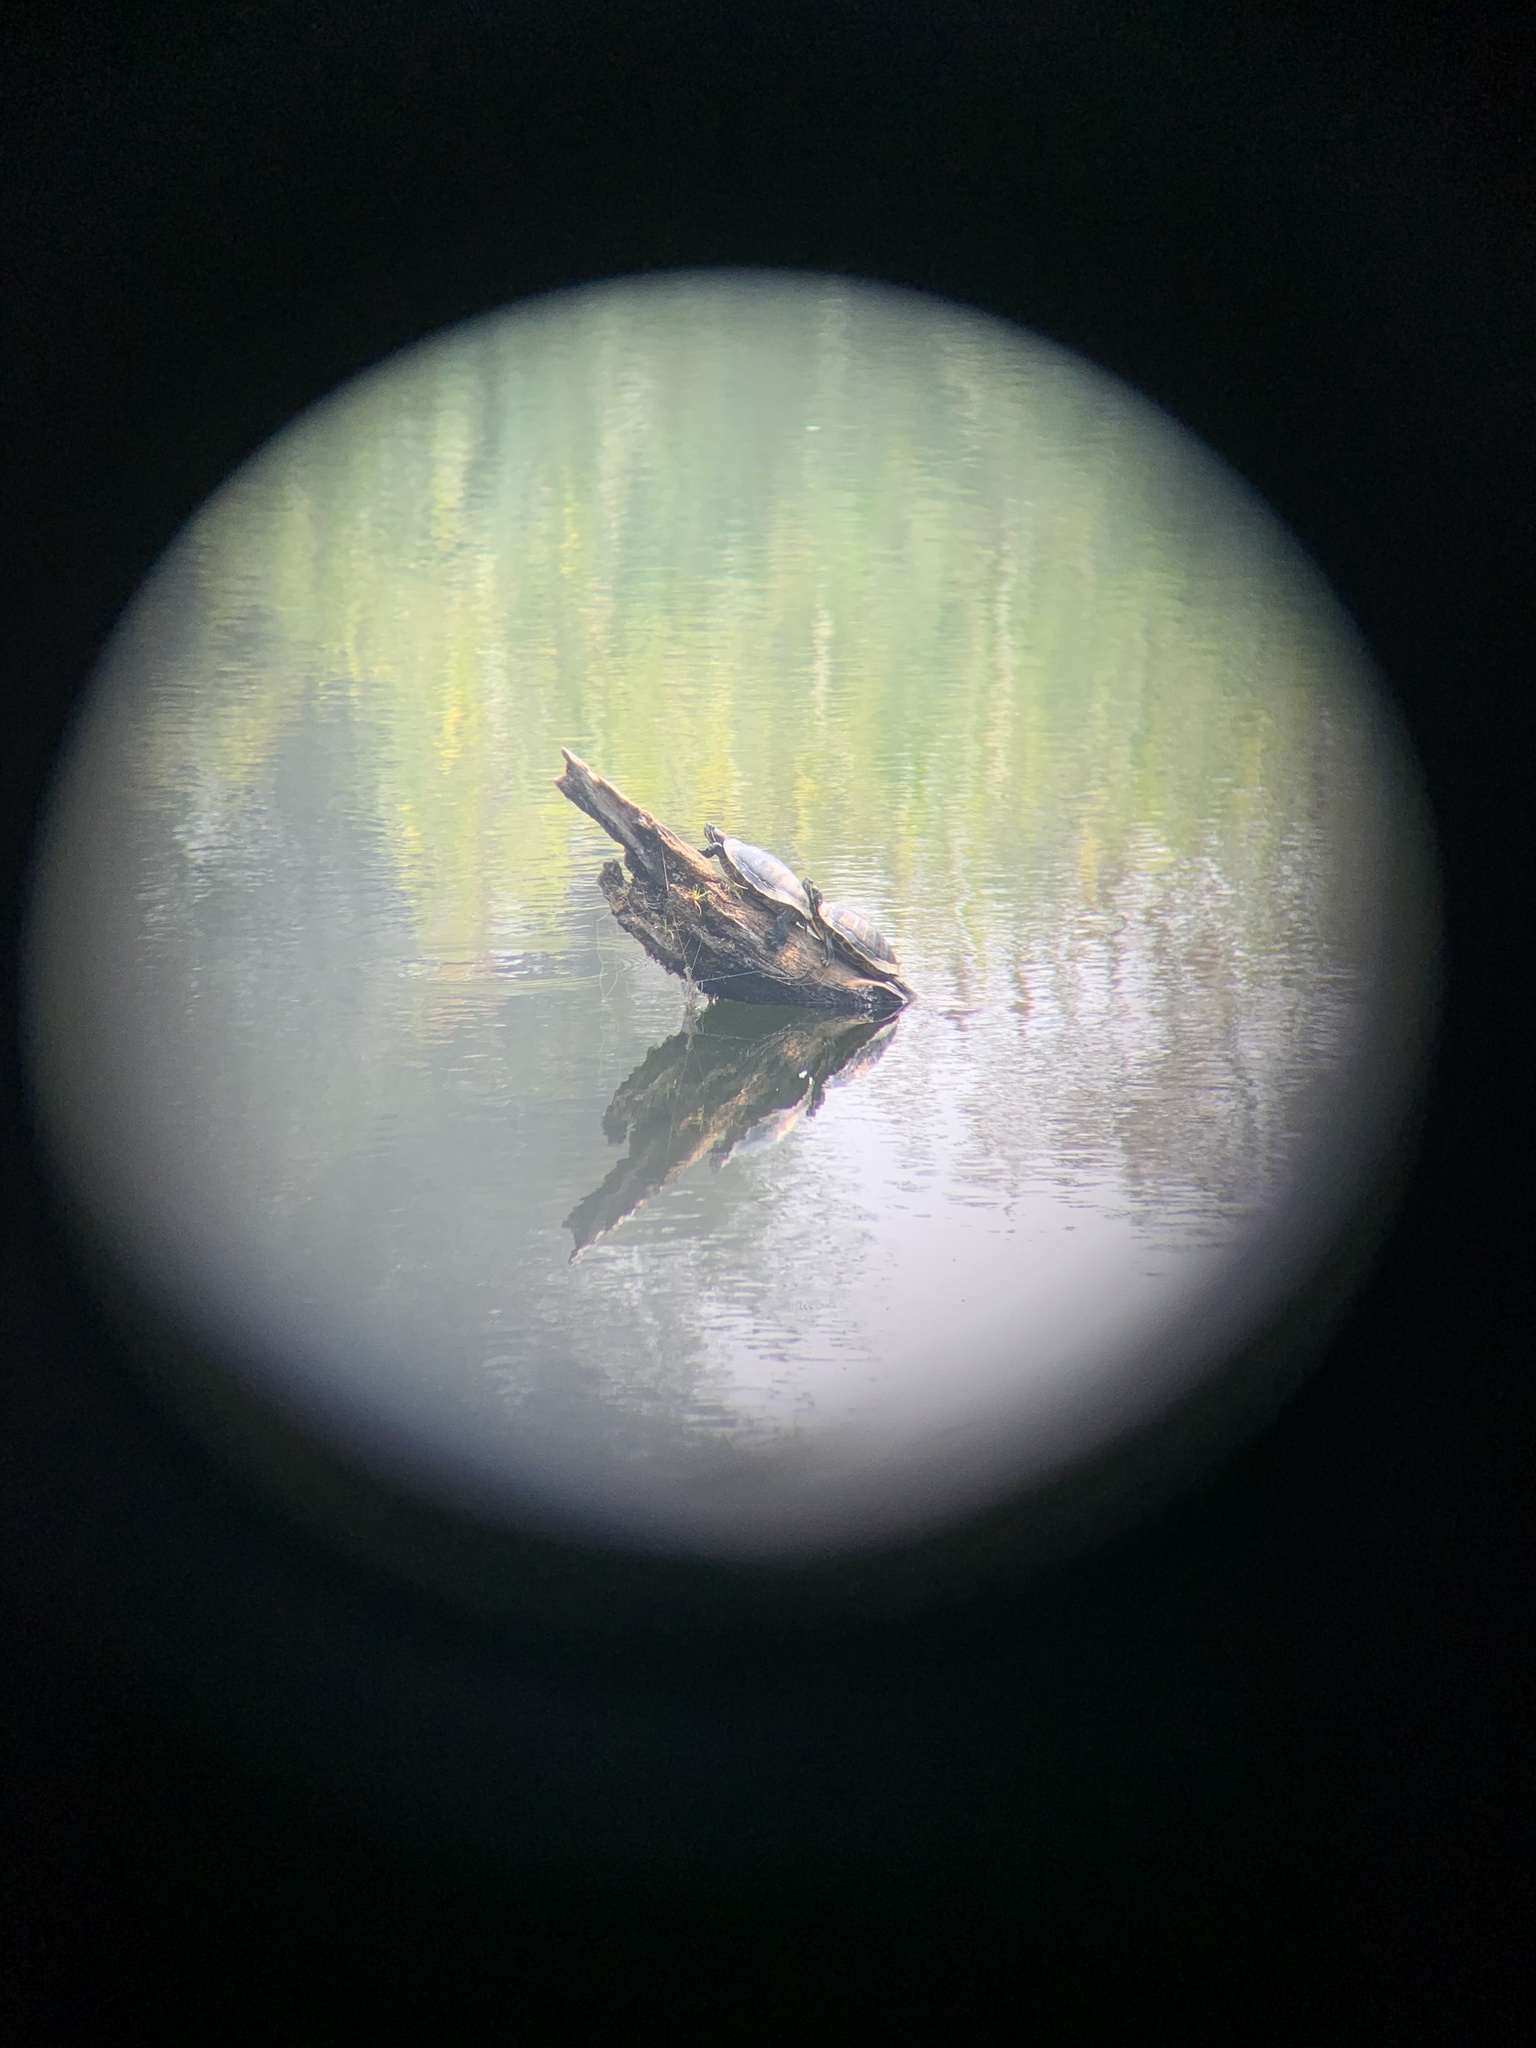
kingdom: Animalia
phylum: Chordata
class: Testudines
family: Emydidae
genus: Trachemys
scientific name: Trachemys scripta
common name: Slider
